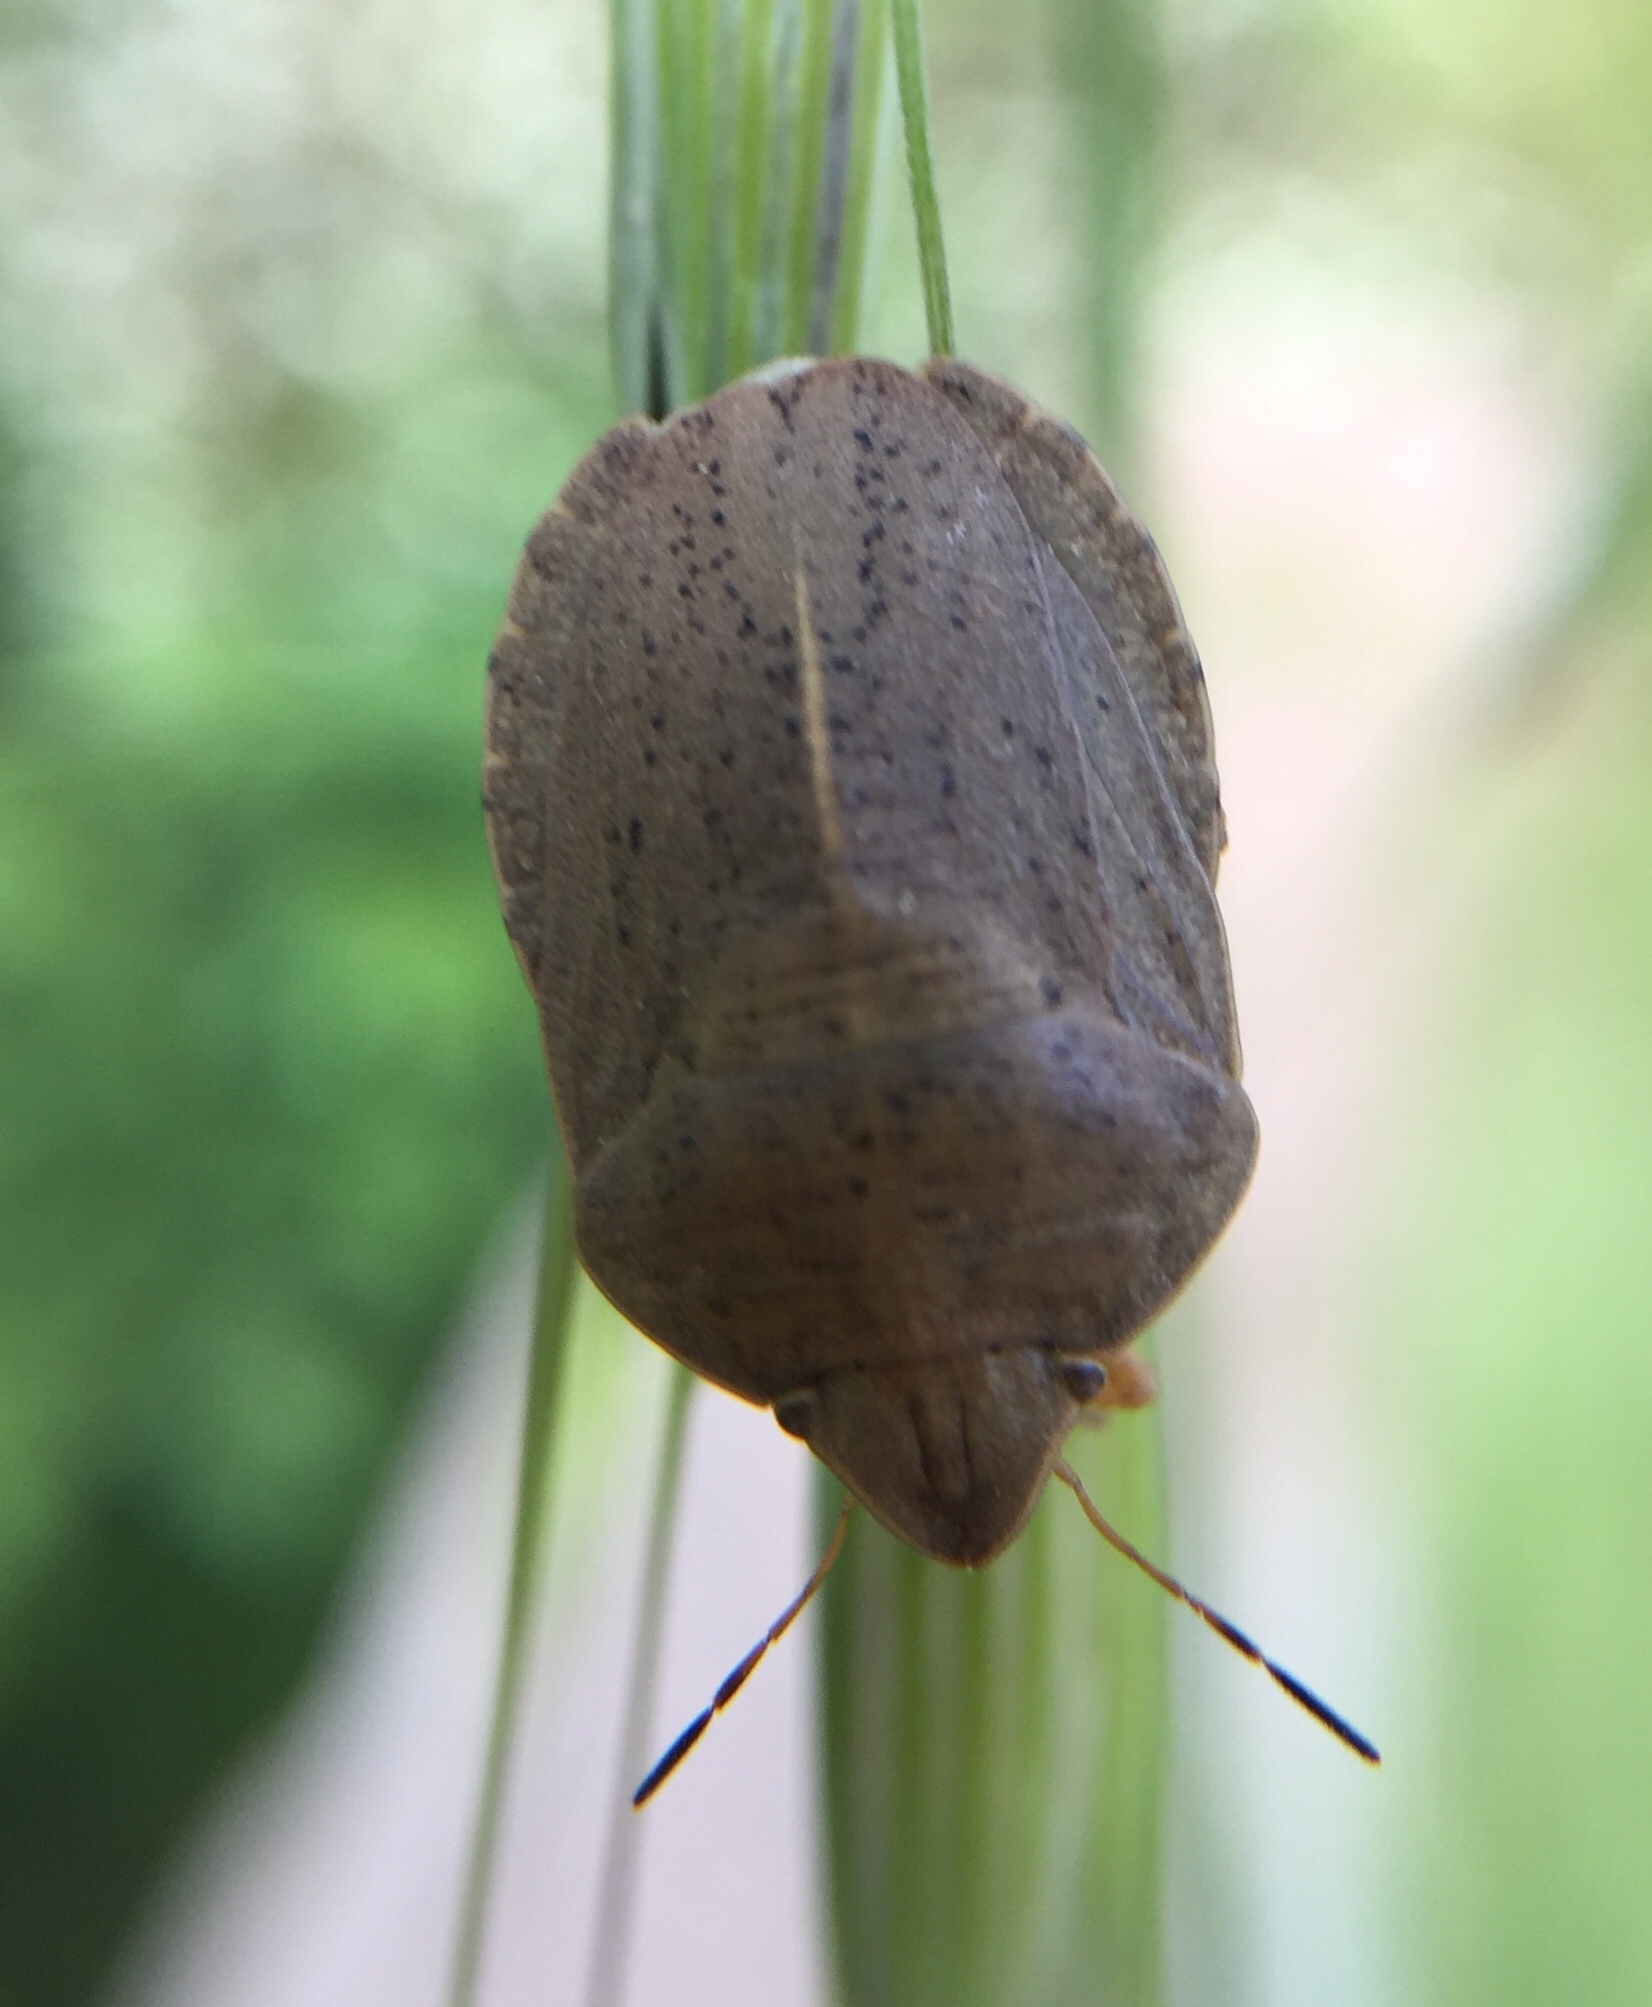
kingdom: Animalia
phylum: Arthropoda
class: Insecta
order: Hemiptera
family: Scutelleridae
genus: Eurygaster
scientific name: Eurygaster austriaca
